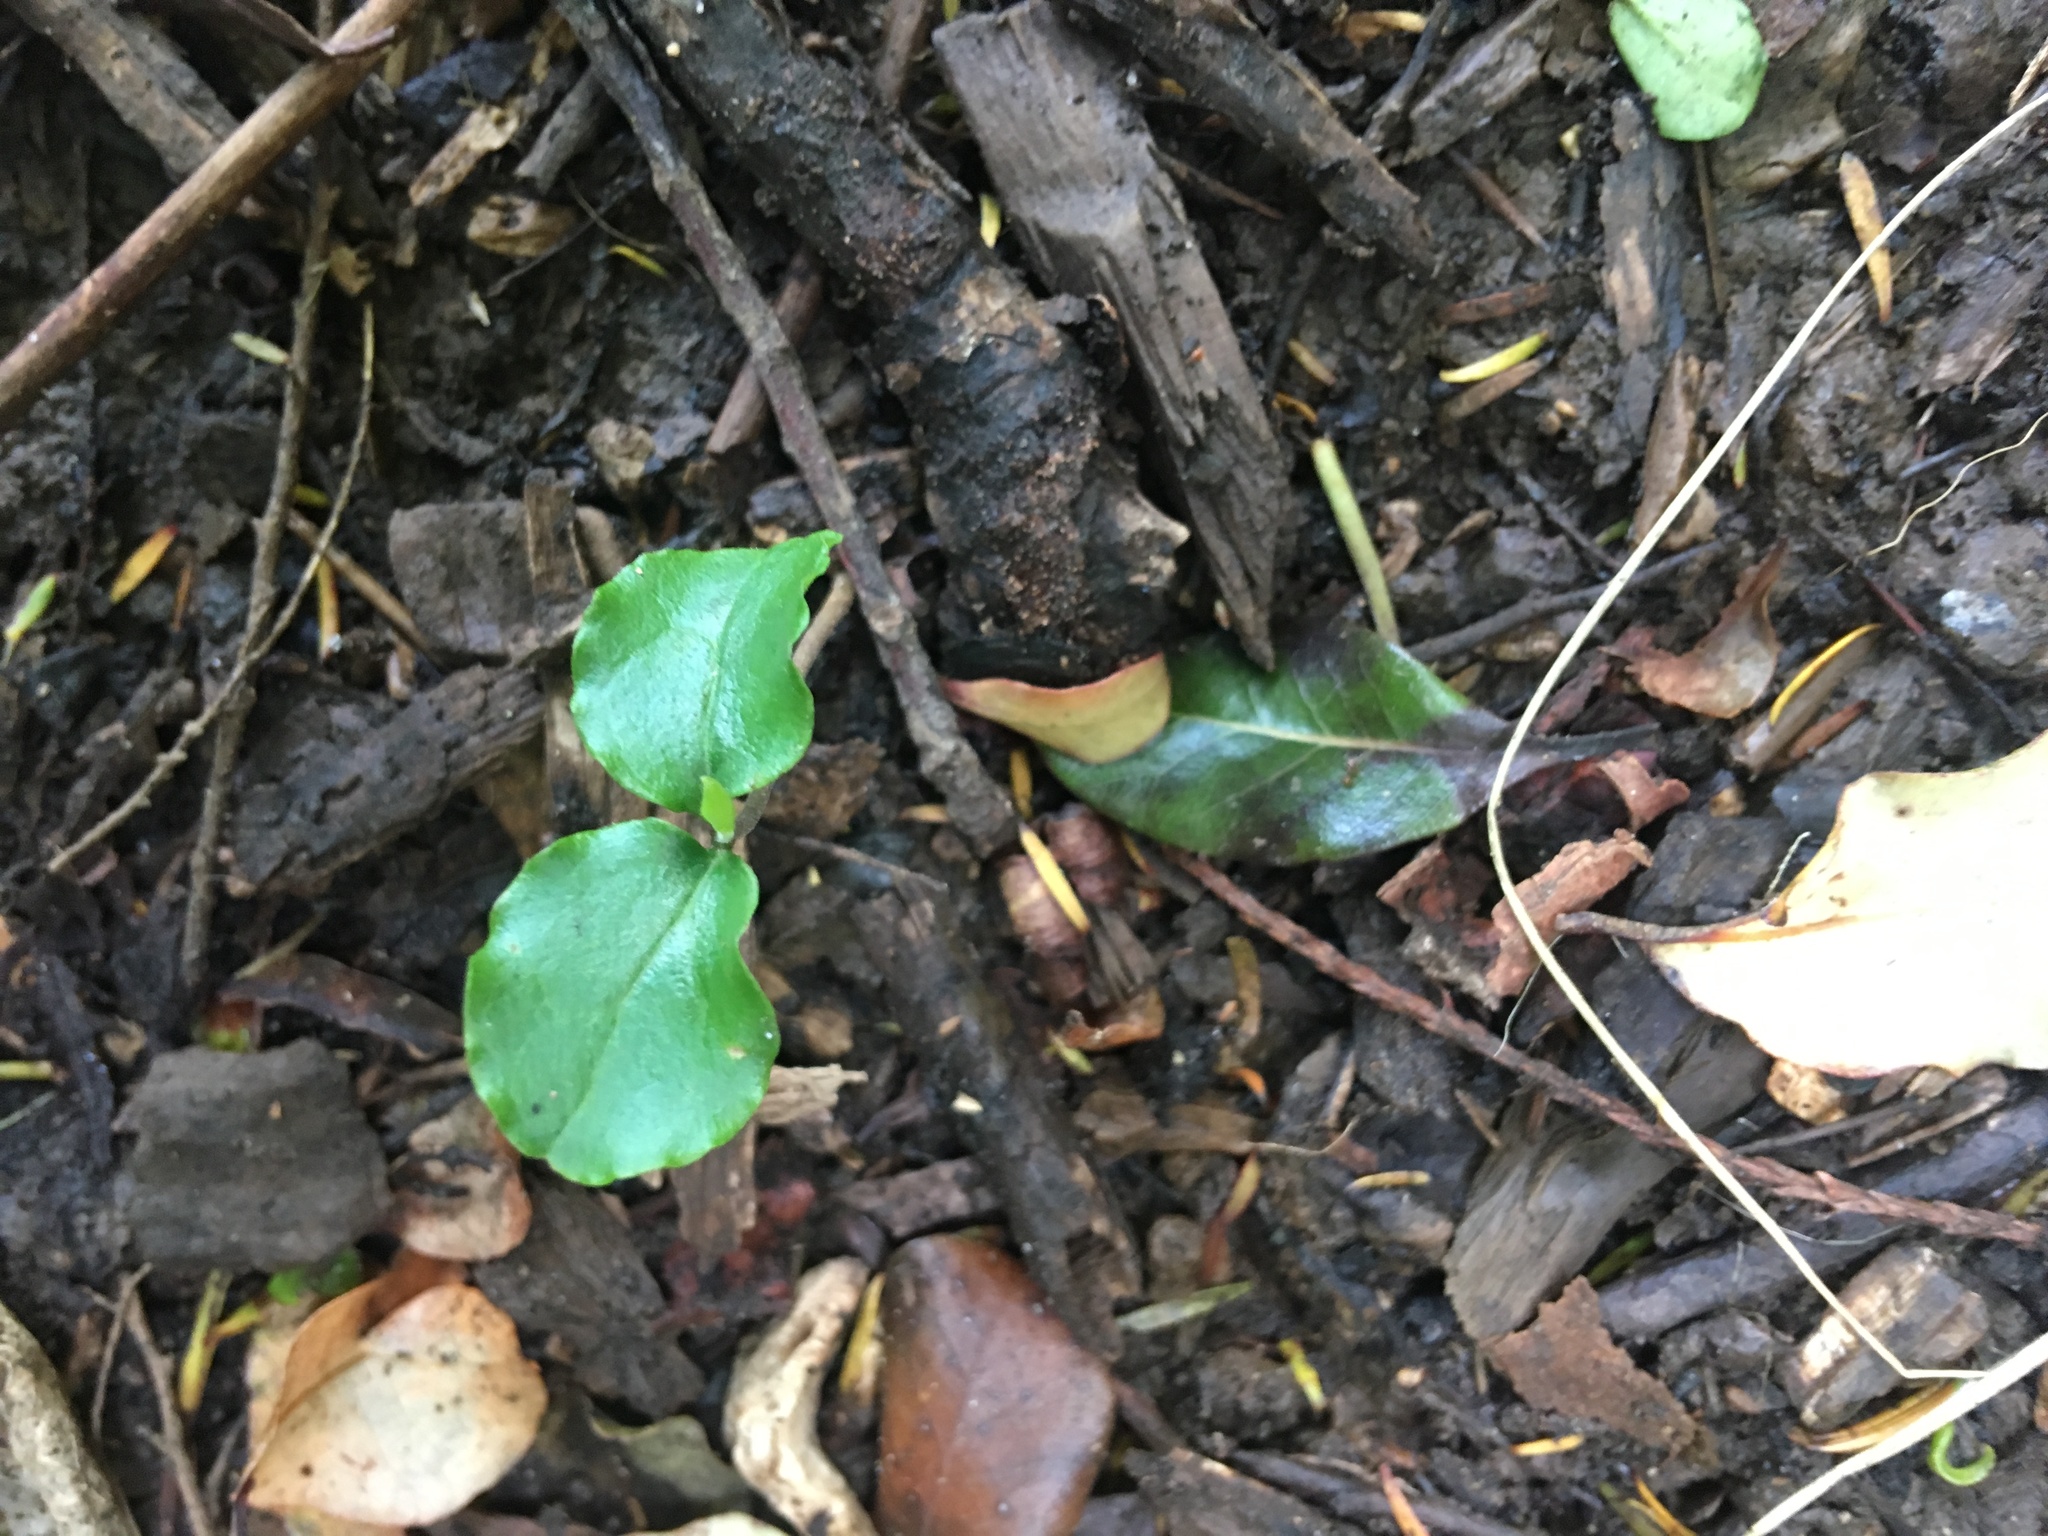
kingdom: Plantae
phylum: Tracheophyta
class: Magnoliopsida
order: Lamiales
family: Oleaceae
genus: Ligustrum
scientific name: Ligustrum sinense
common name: Chinese privet
